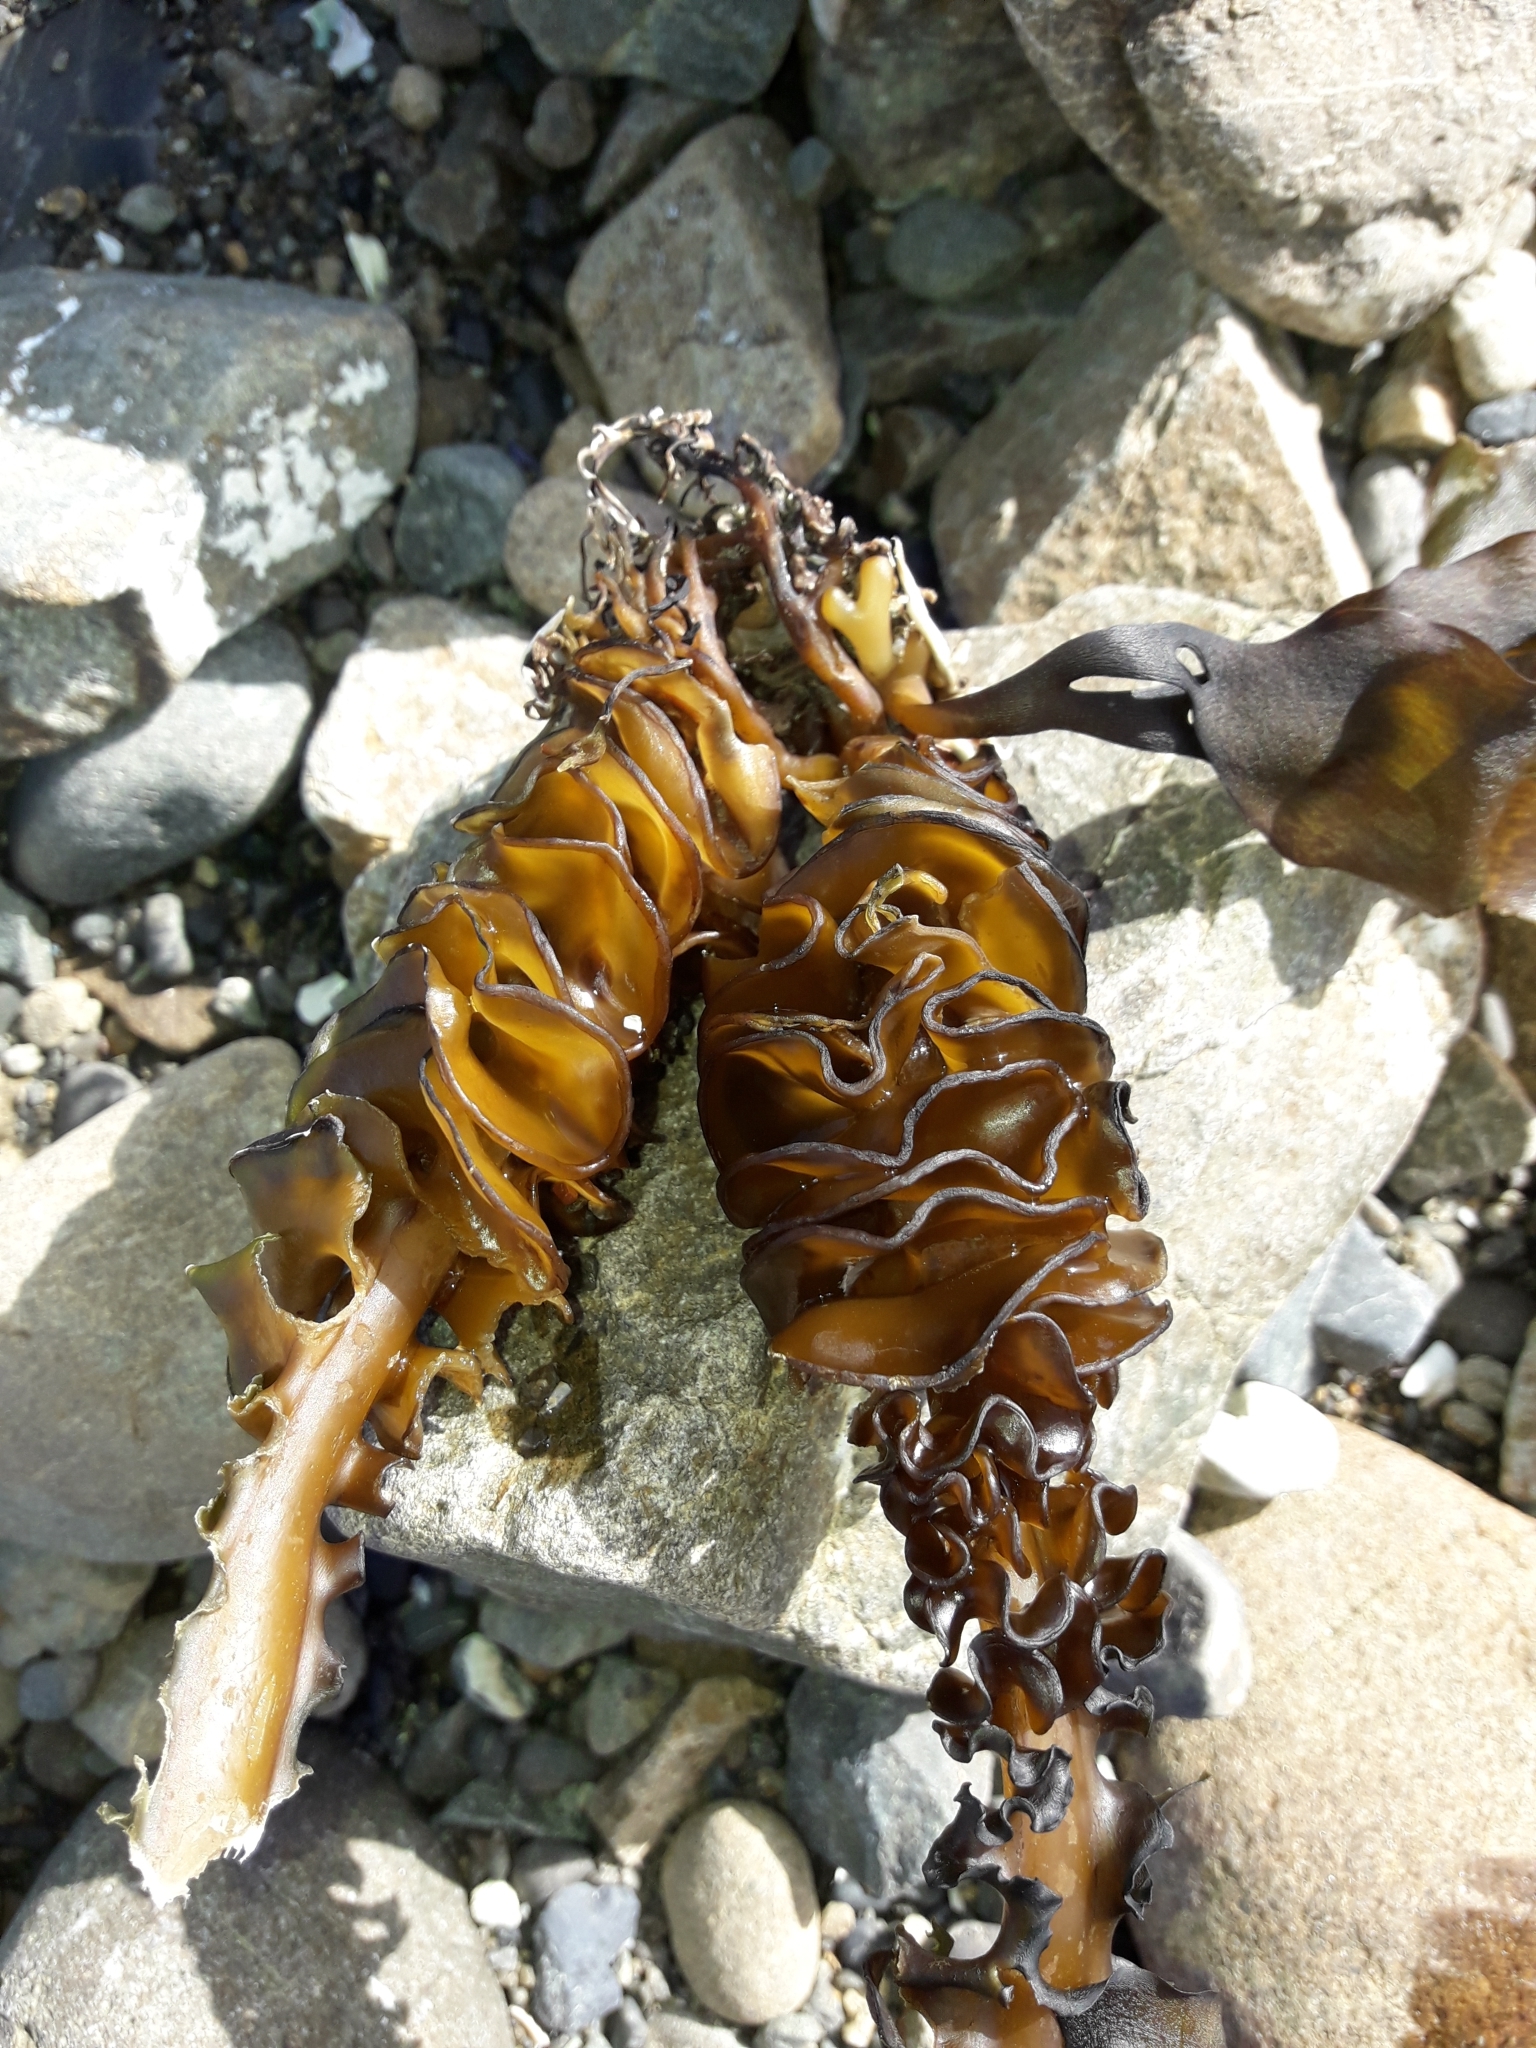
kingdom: Chromista
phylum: Ochrophyta
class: Phaeophyceae
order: Laminariales
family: Alariaceae
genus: Undaria
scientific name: Undaria pinnatifida
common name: Asian kelp
